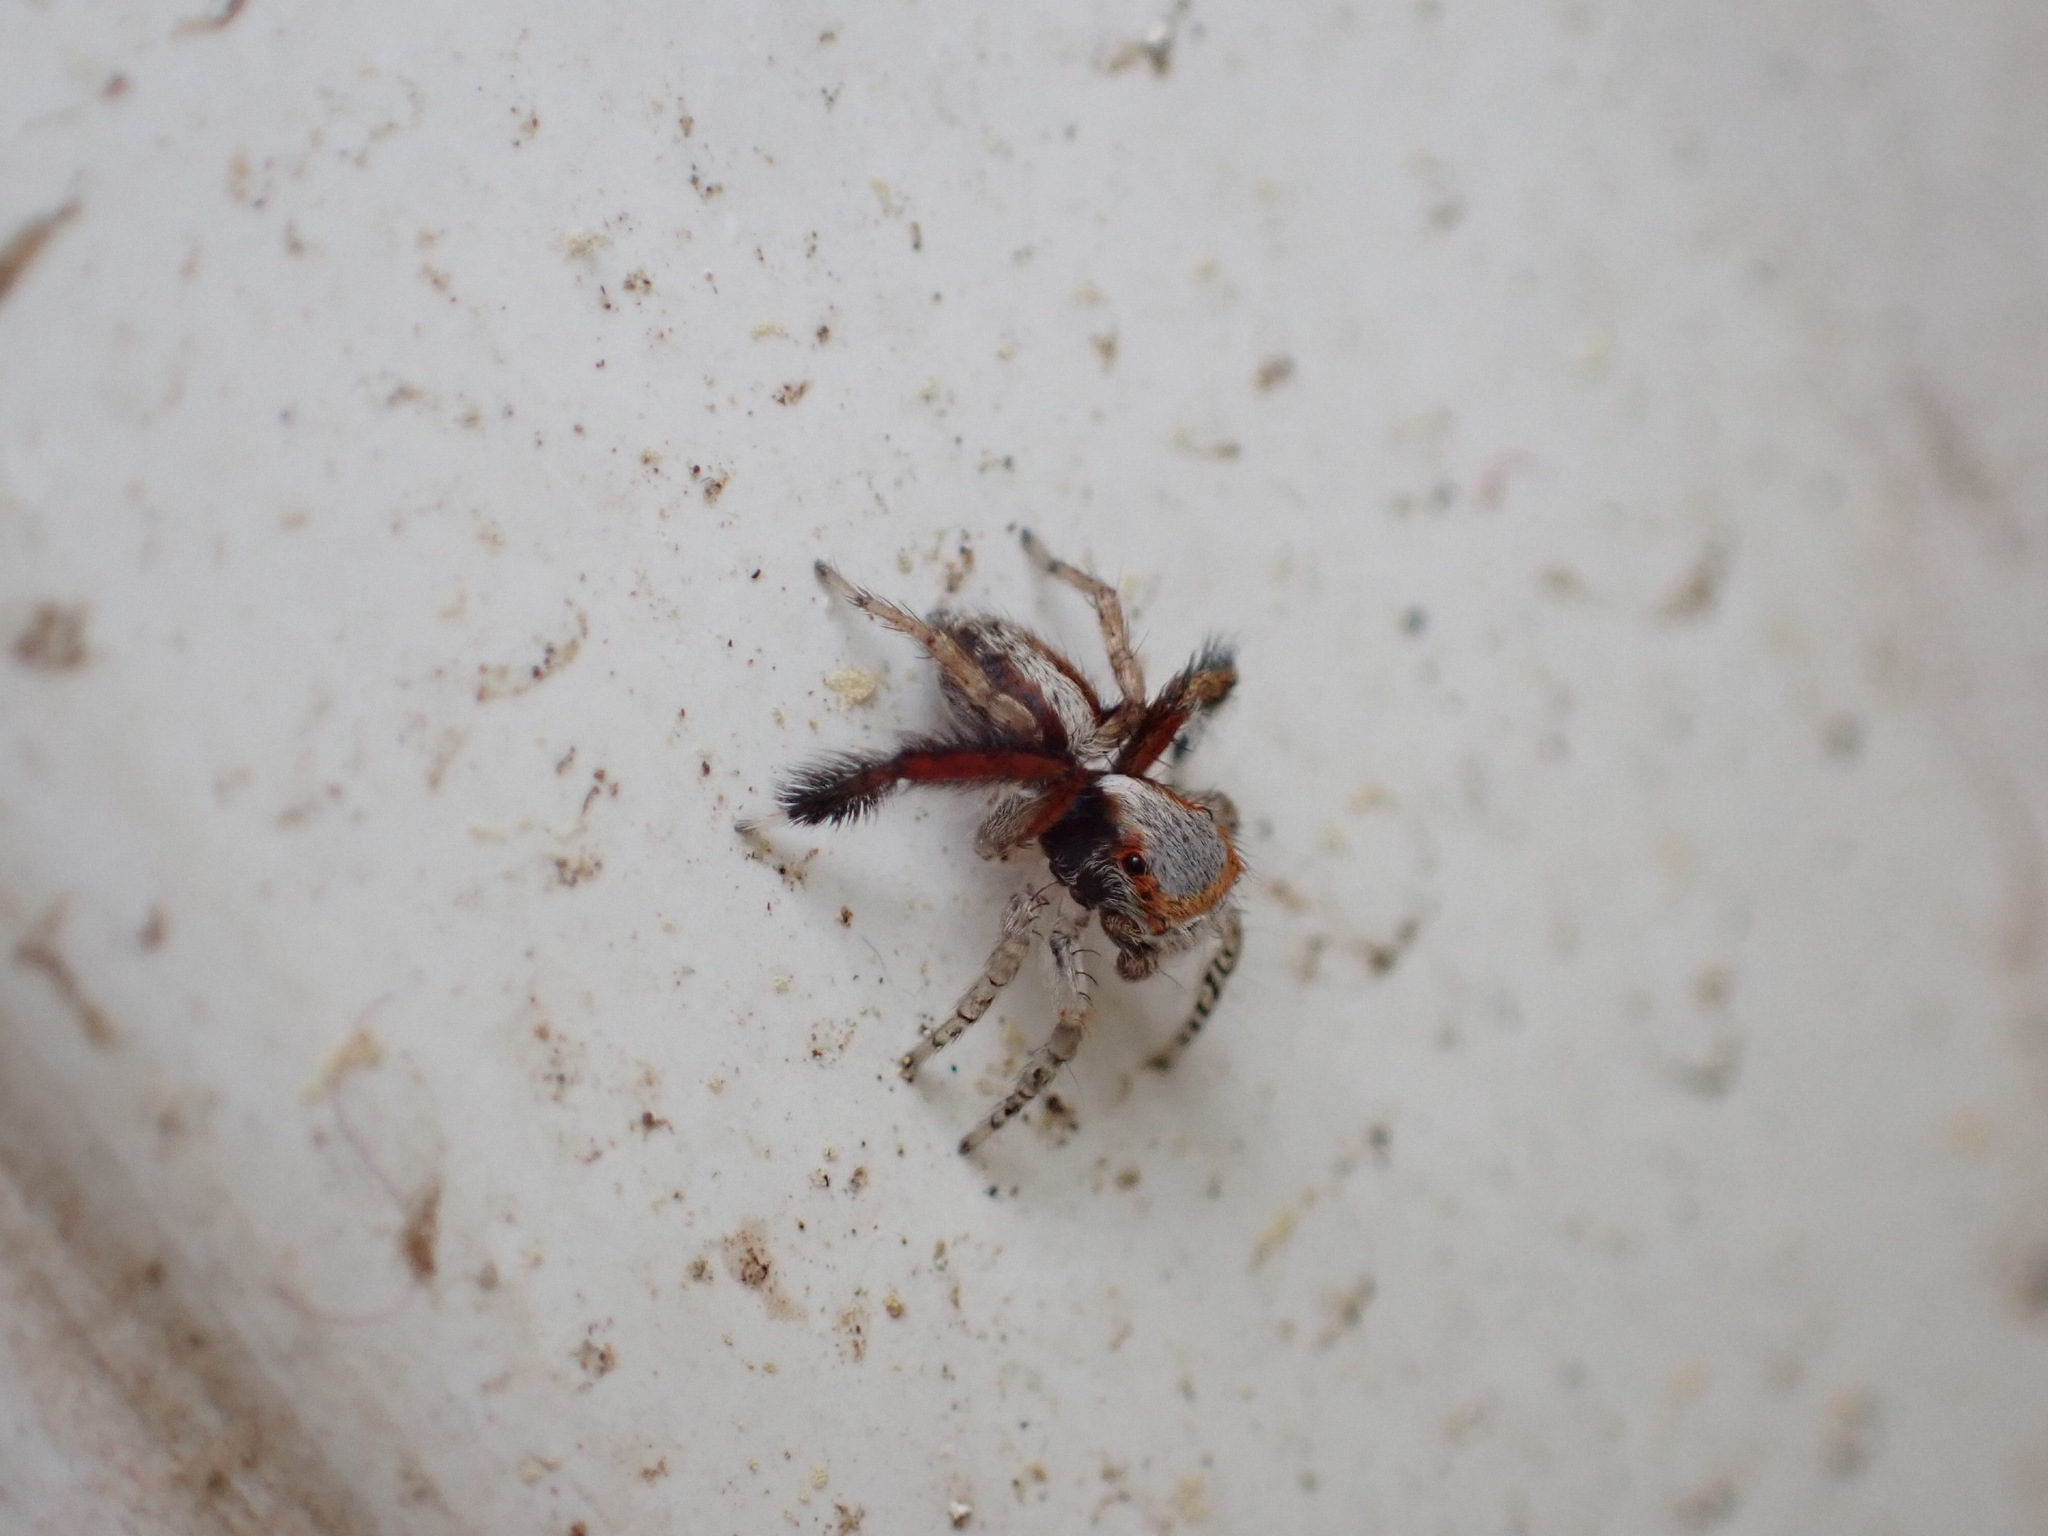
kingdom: Animalia
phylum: Arthropoda
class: Arachnida
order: Araneae
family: Salticidae
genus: Saitis
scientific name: Saitis barbipes
